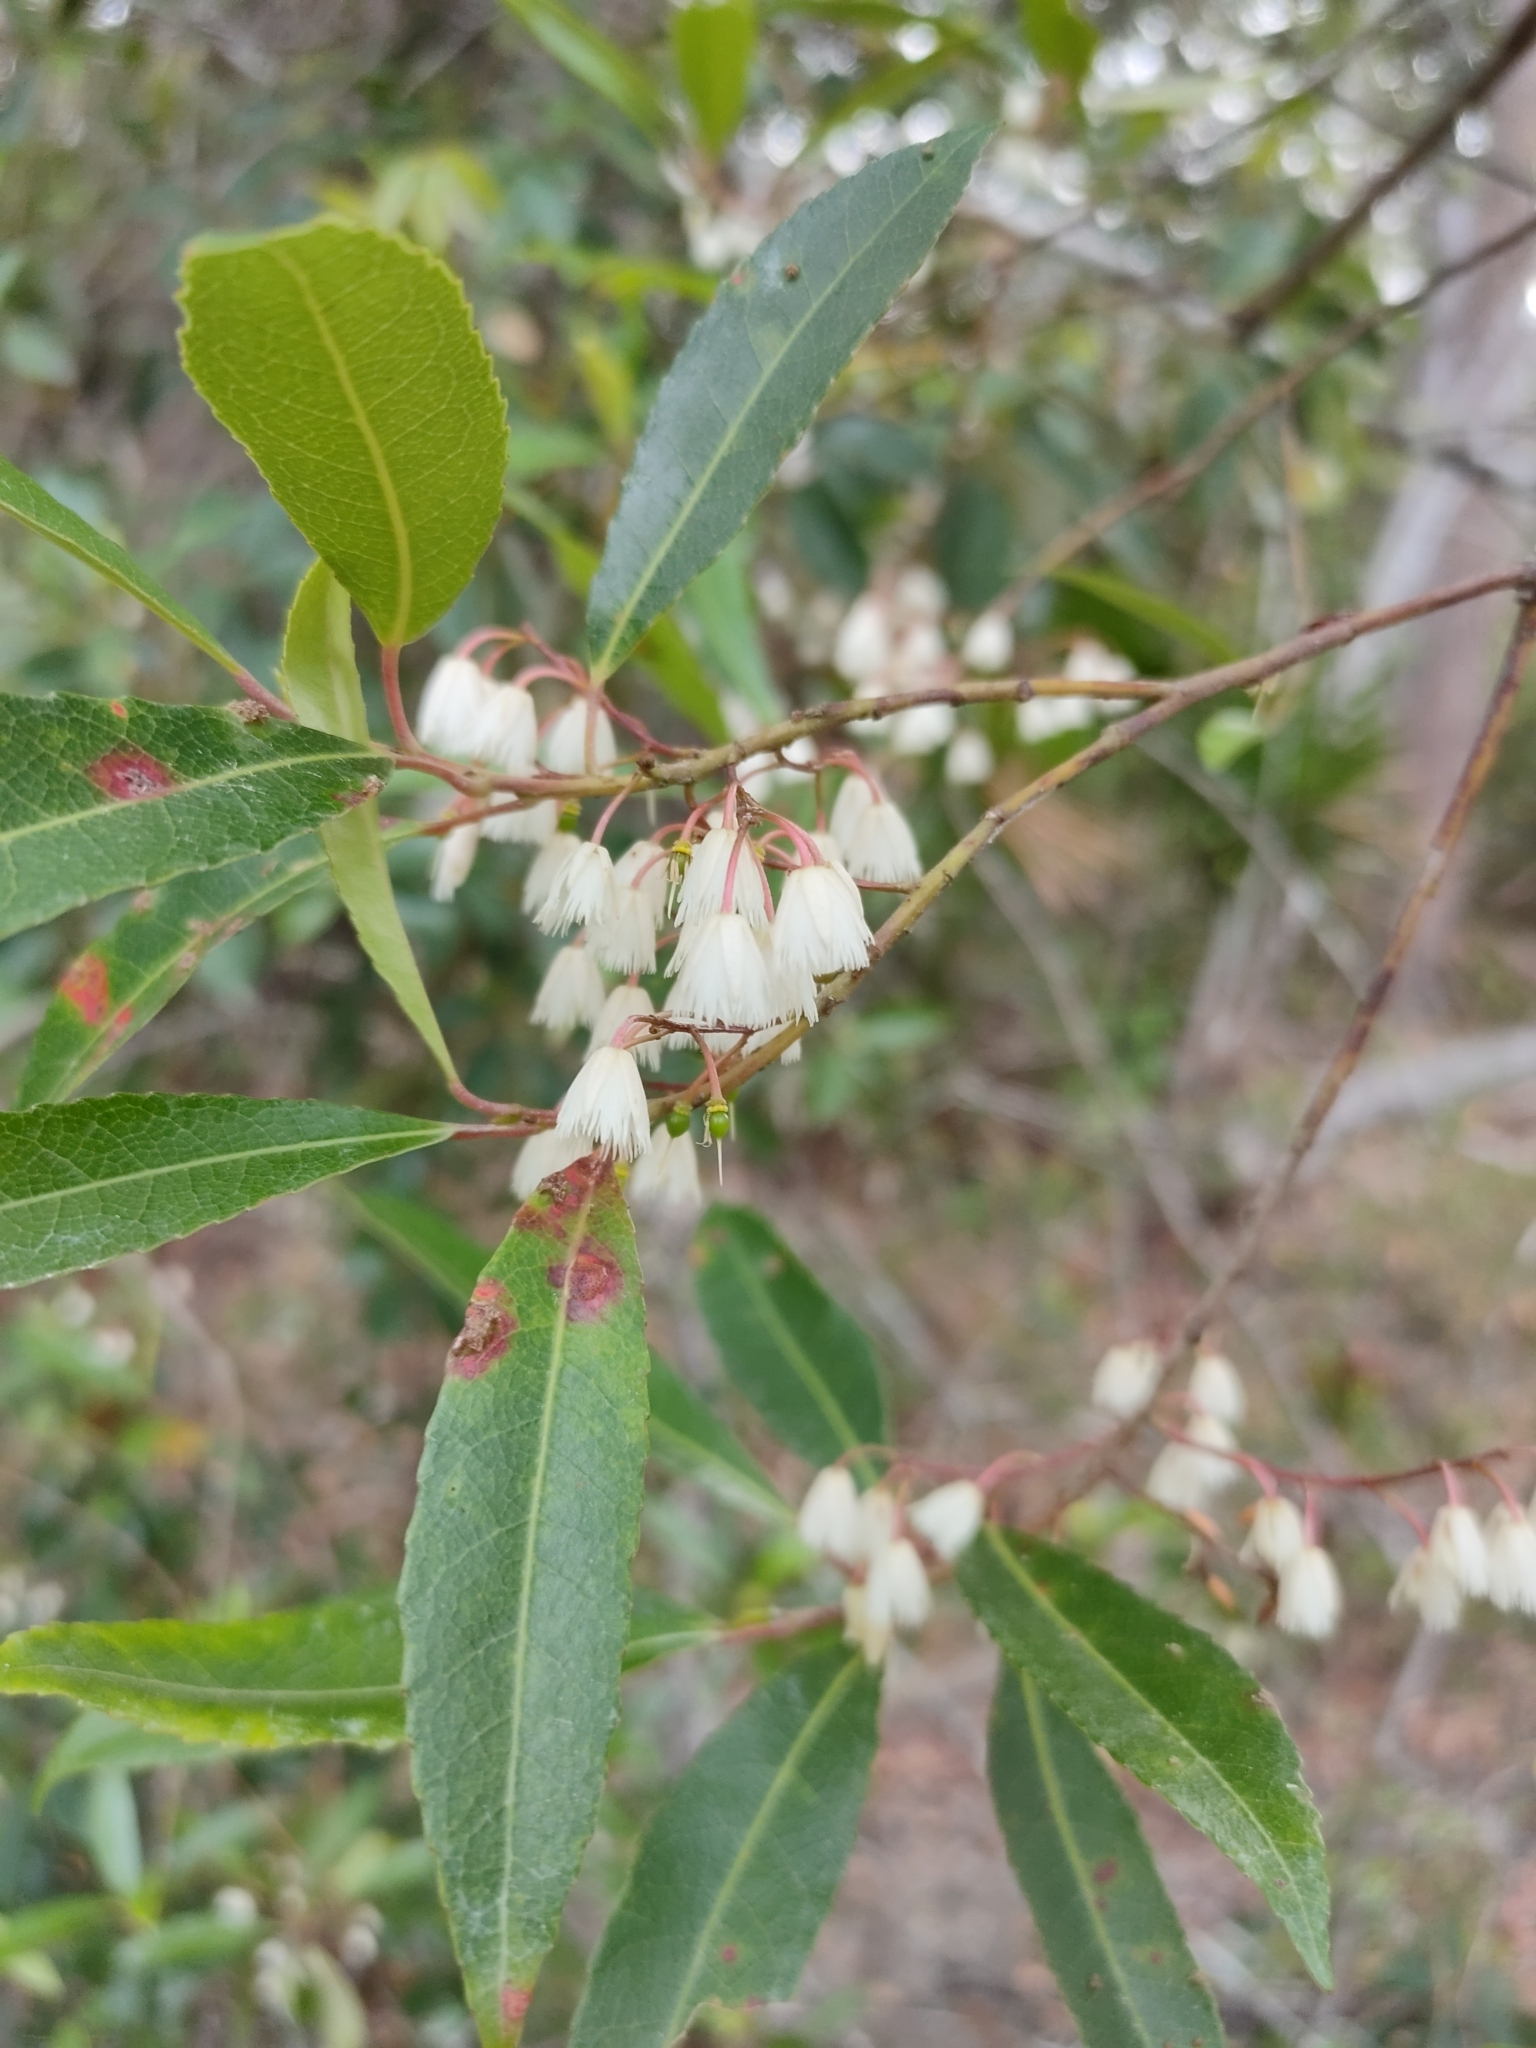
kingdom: Plantae
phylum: Tracheophyta
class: Magnoliopsida
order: Oxalidales
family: Elaeocarpaceae
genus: Elaeocarpus
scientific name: Elaeocarpus reticulatus
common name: Ash quandong
